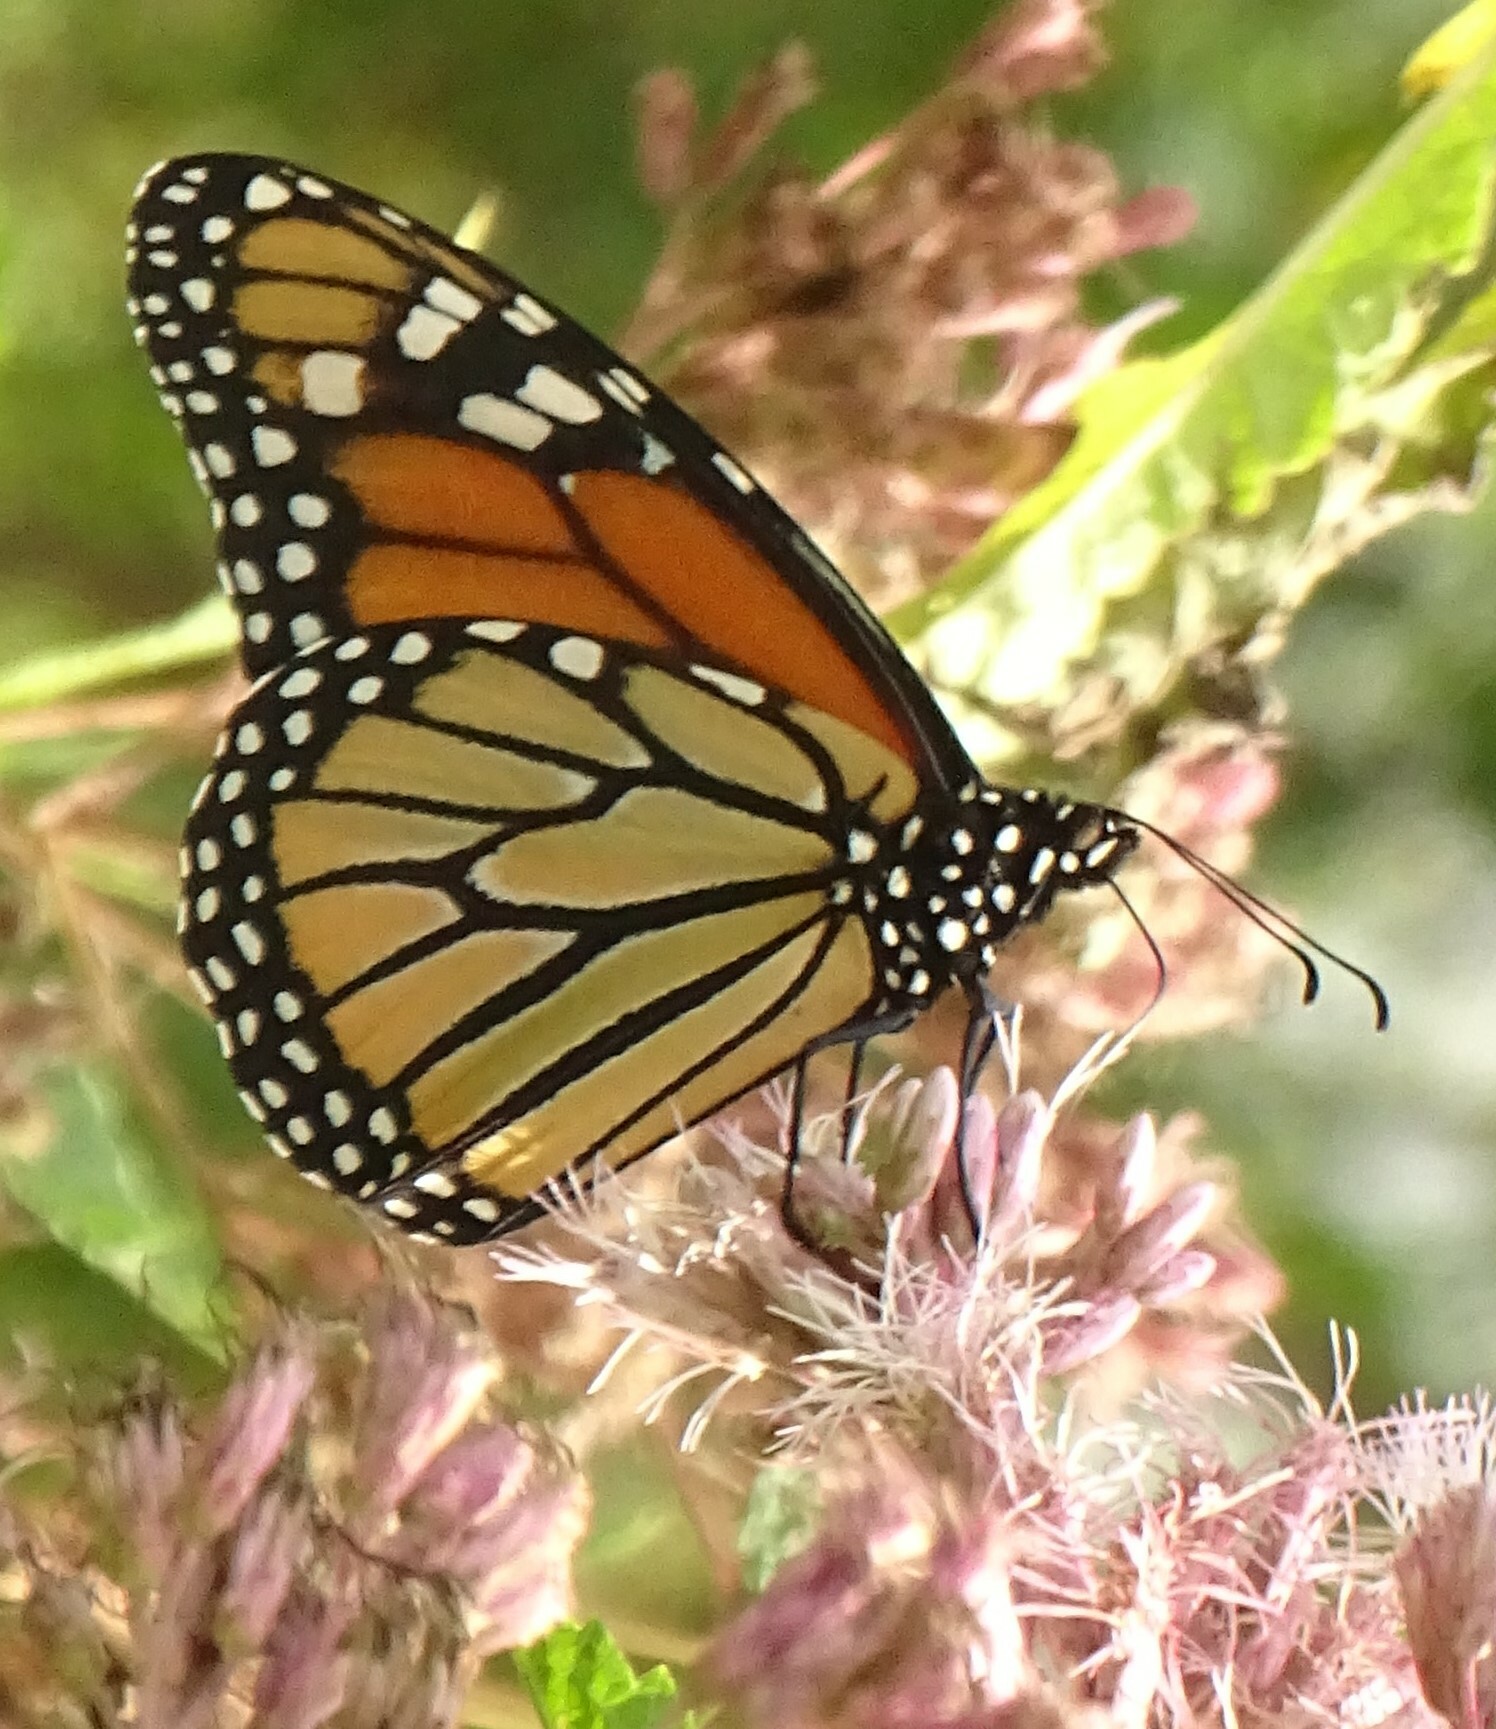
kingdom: Animalia
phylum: Arthropoda
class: Insecta
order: Lepidoptera
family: Nymphalidae
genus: Danaus
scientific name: Danaus plexippus
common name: Monarch
